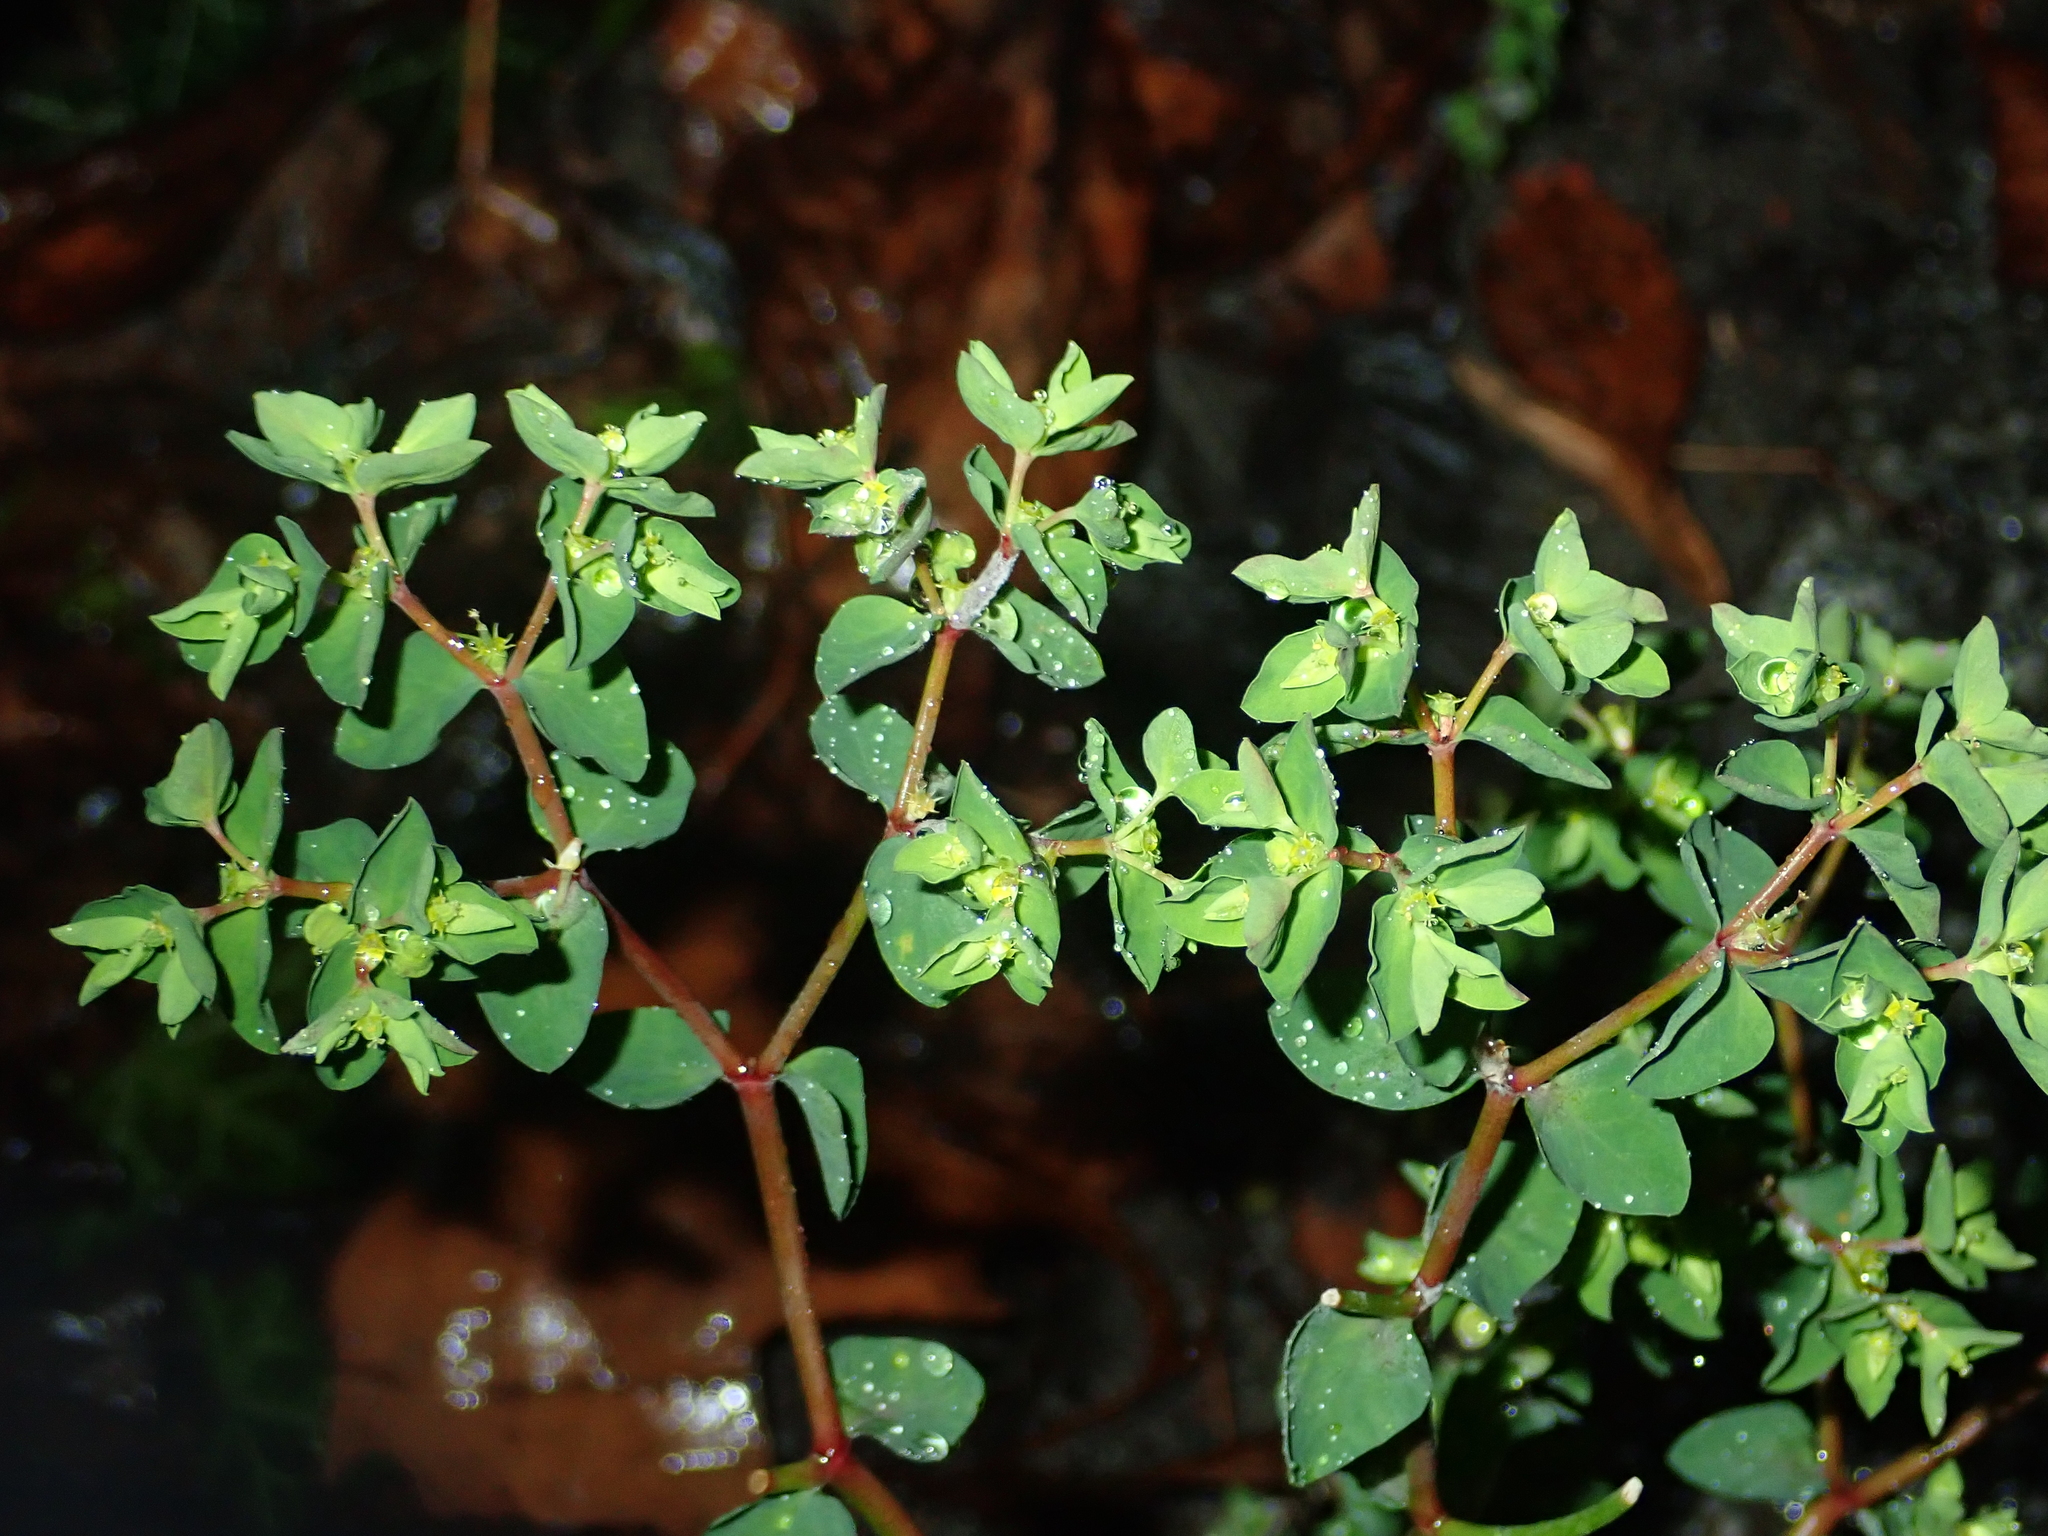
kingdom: Plantae
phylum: Tracheophyta
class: Magnoliopsida
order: Malpighiales
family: Euphorbiaceae
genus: Euphorbia
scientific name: Euphorbia peplus
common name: Petty spurge
